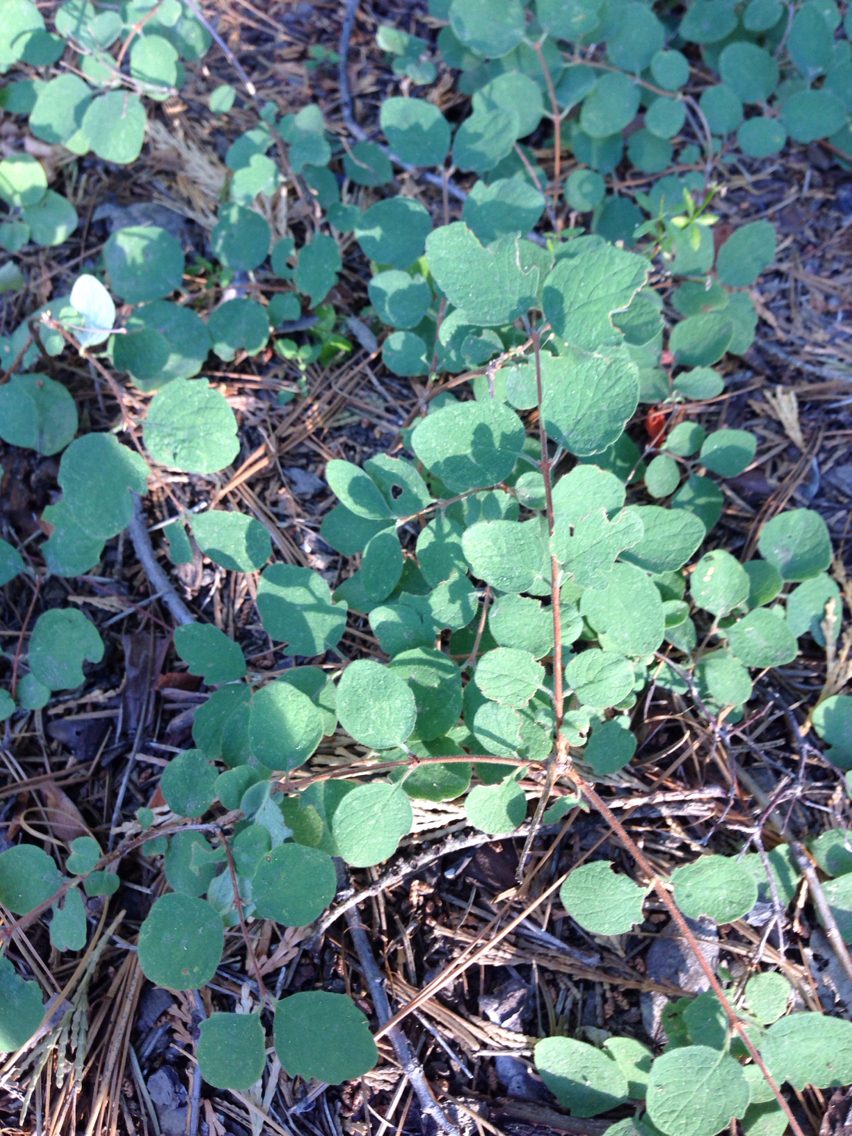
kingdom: Plantae
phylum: Tracheophyta
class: Magnoliopsida
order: Dipsacales
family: Caprifoliaceae
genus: Symphoricarpos
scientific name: Symphoricarpos mollis
